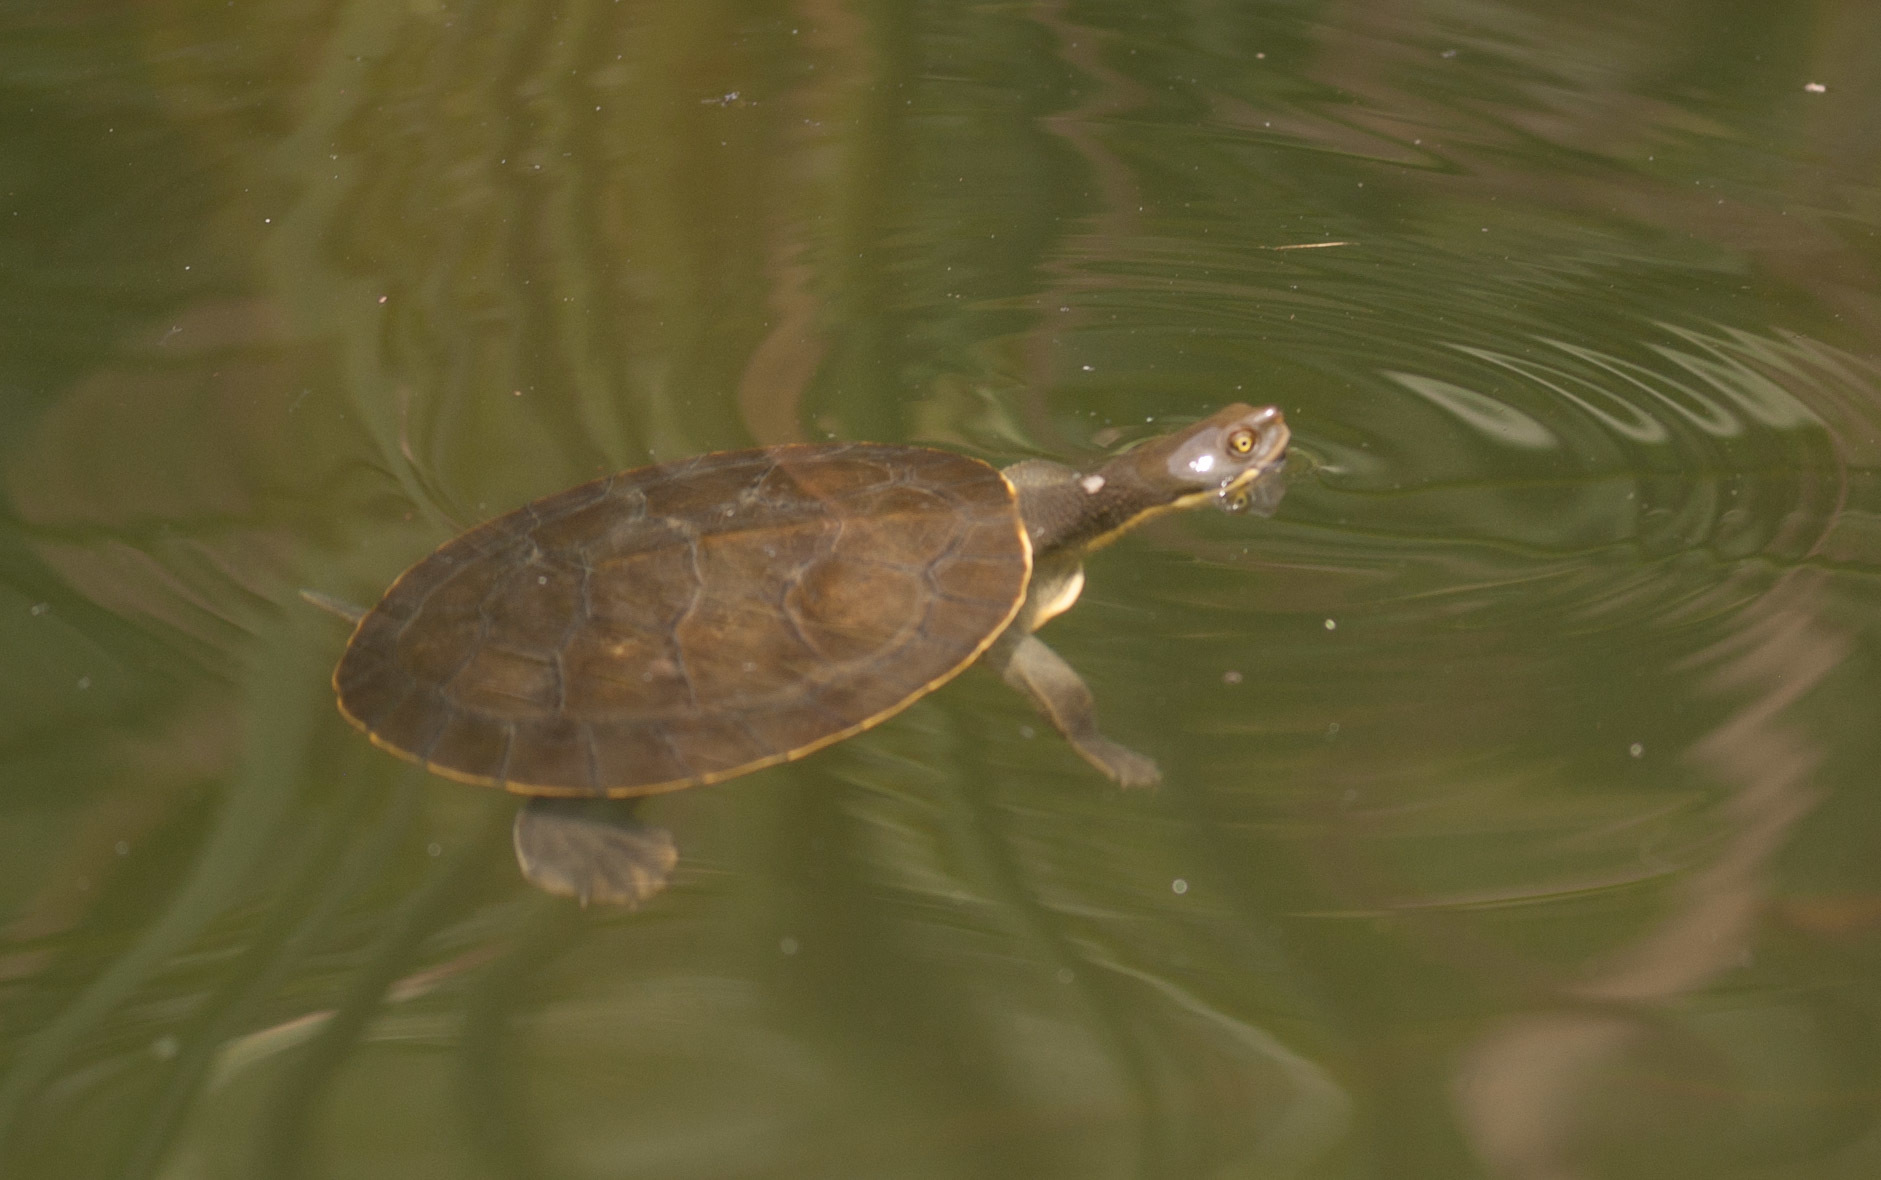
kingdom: Animalia
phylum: Chordata
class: Testudines
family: Chelidae
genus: Emydura
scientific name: Emydura macquarii
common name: Murray river turtle
